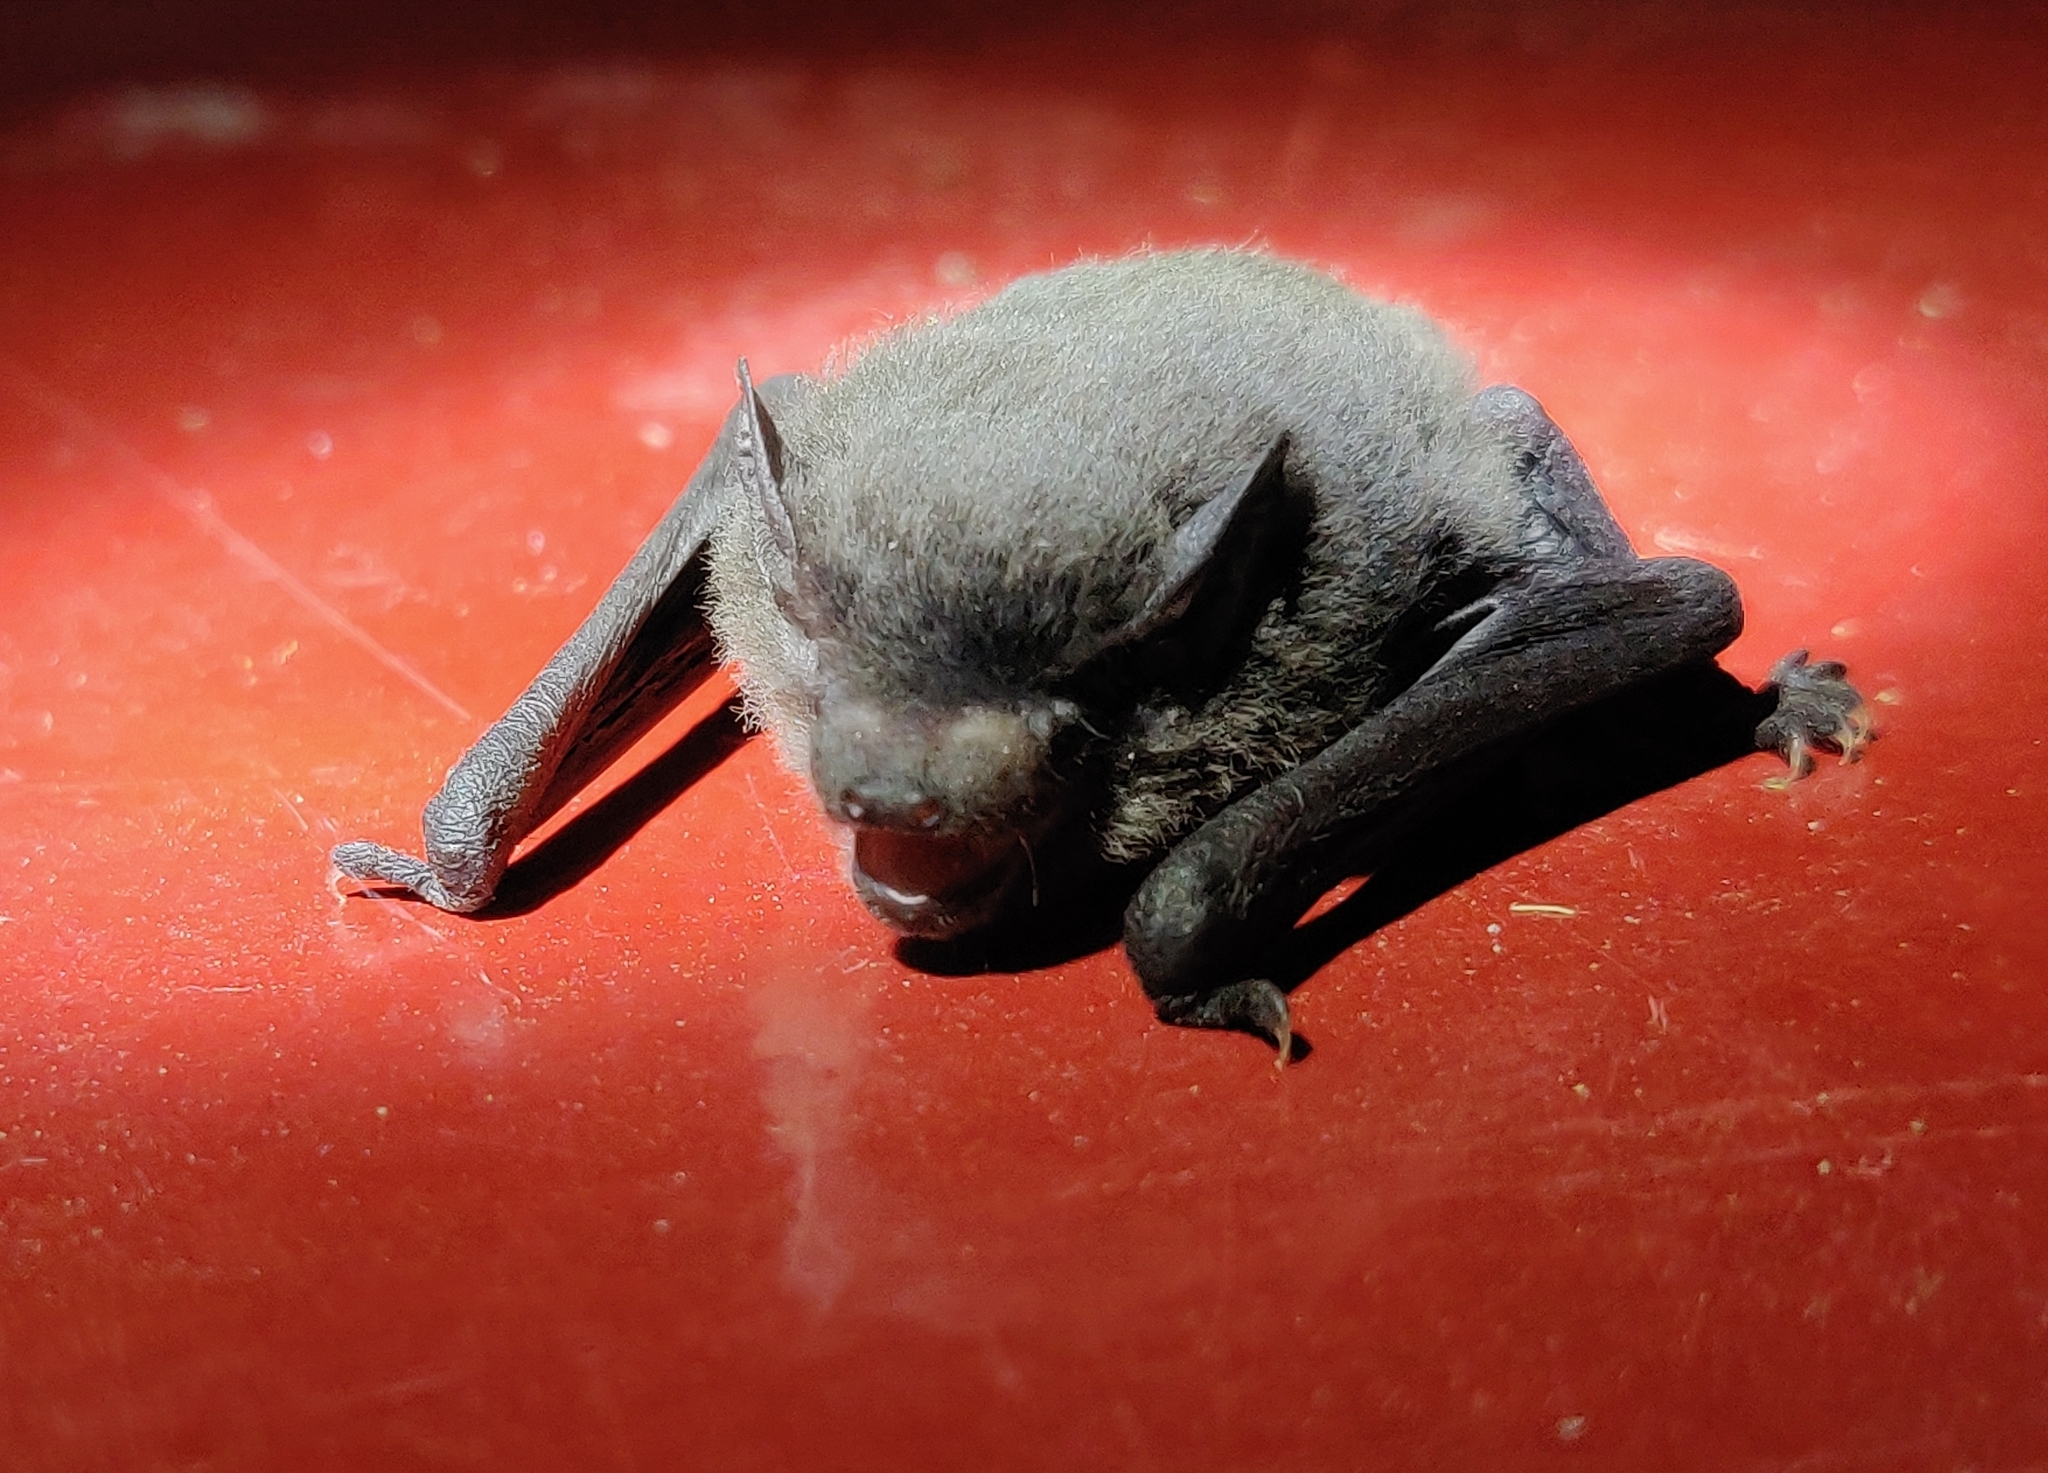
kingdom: Animalia
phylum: Chordata
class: Mammalia
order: Chiroptera
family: Vespertilionidae
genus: Pipistrellus
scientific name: Pipistrellus coromandra
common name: Indian pipistrelle
